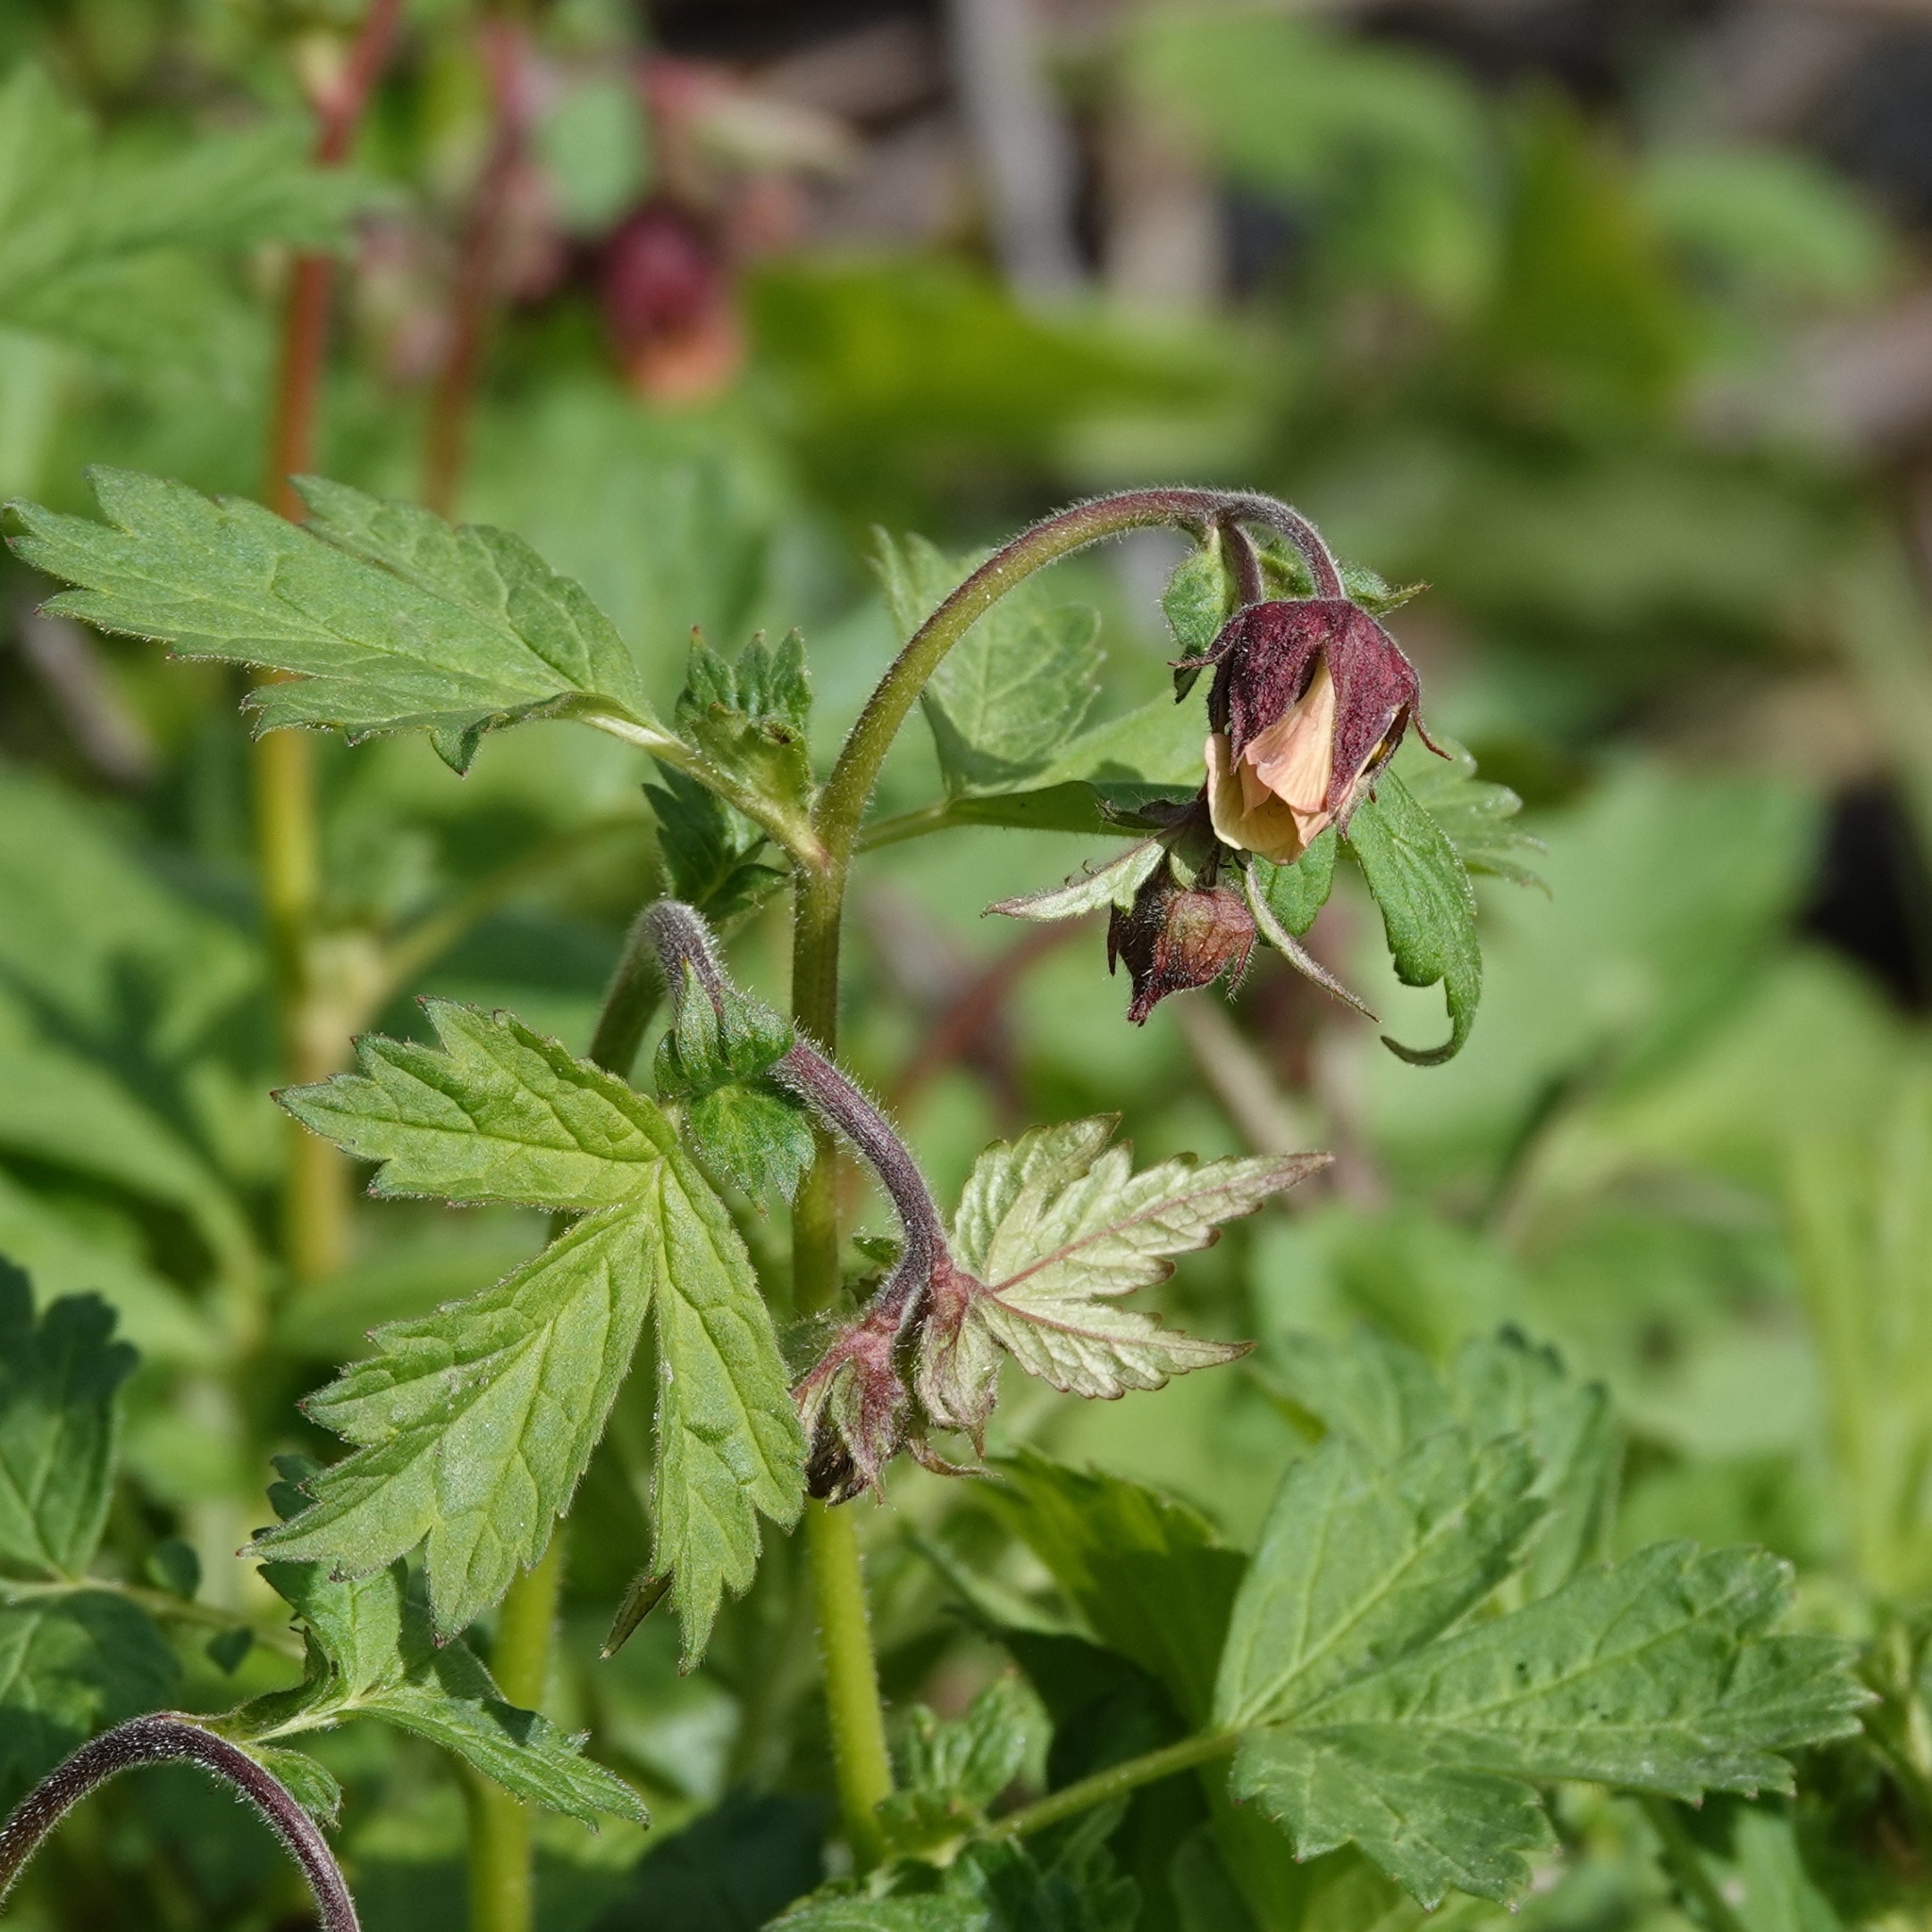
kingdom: Plantae
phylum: Tracheophyta
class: Magnoliopsida
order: Rosales
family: Rosaceae
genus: Geum
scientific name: Geum rivale
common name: Water avens
